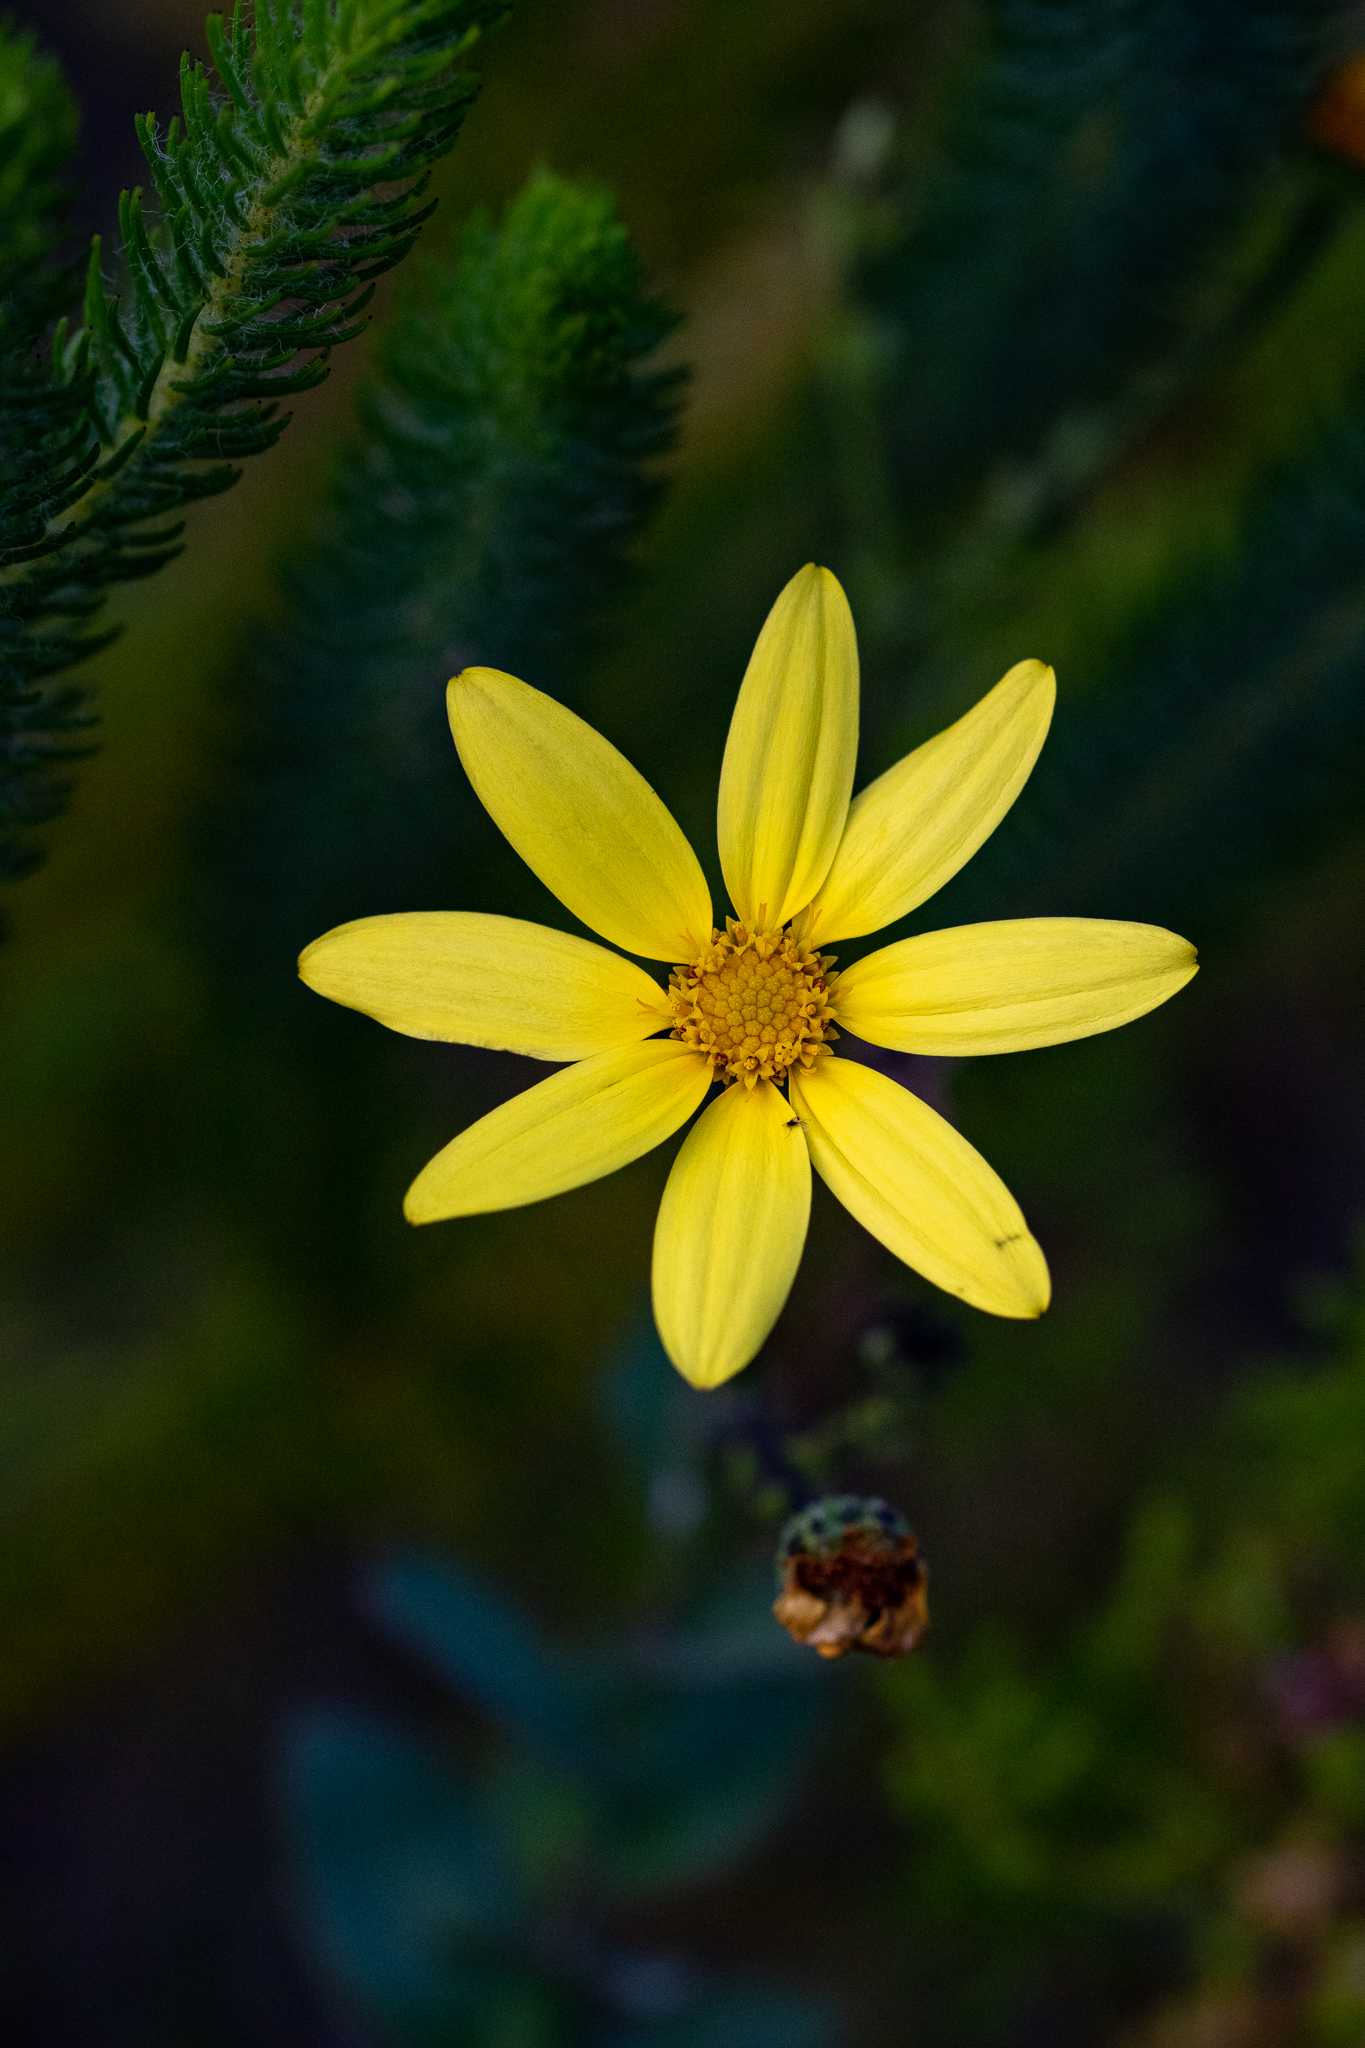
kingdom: Plantae
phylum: Tracheophyta
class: Magnoliopsida
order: Asterales
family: Asteraceae
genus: Osteospermum
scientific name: Osteospermum rotundifolium
